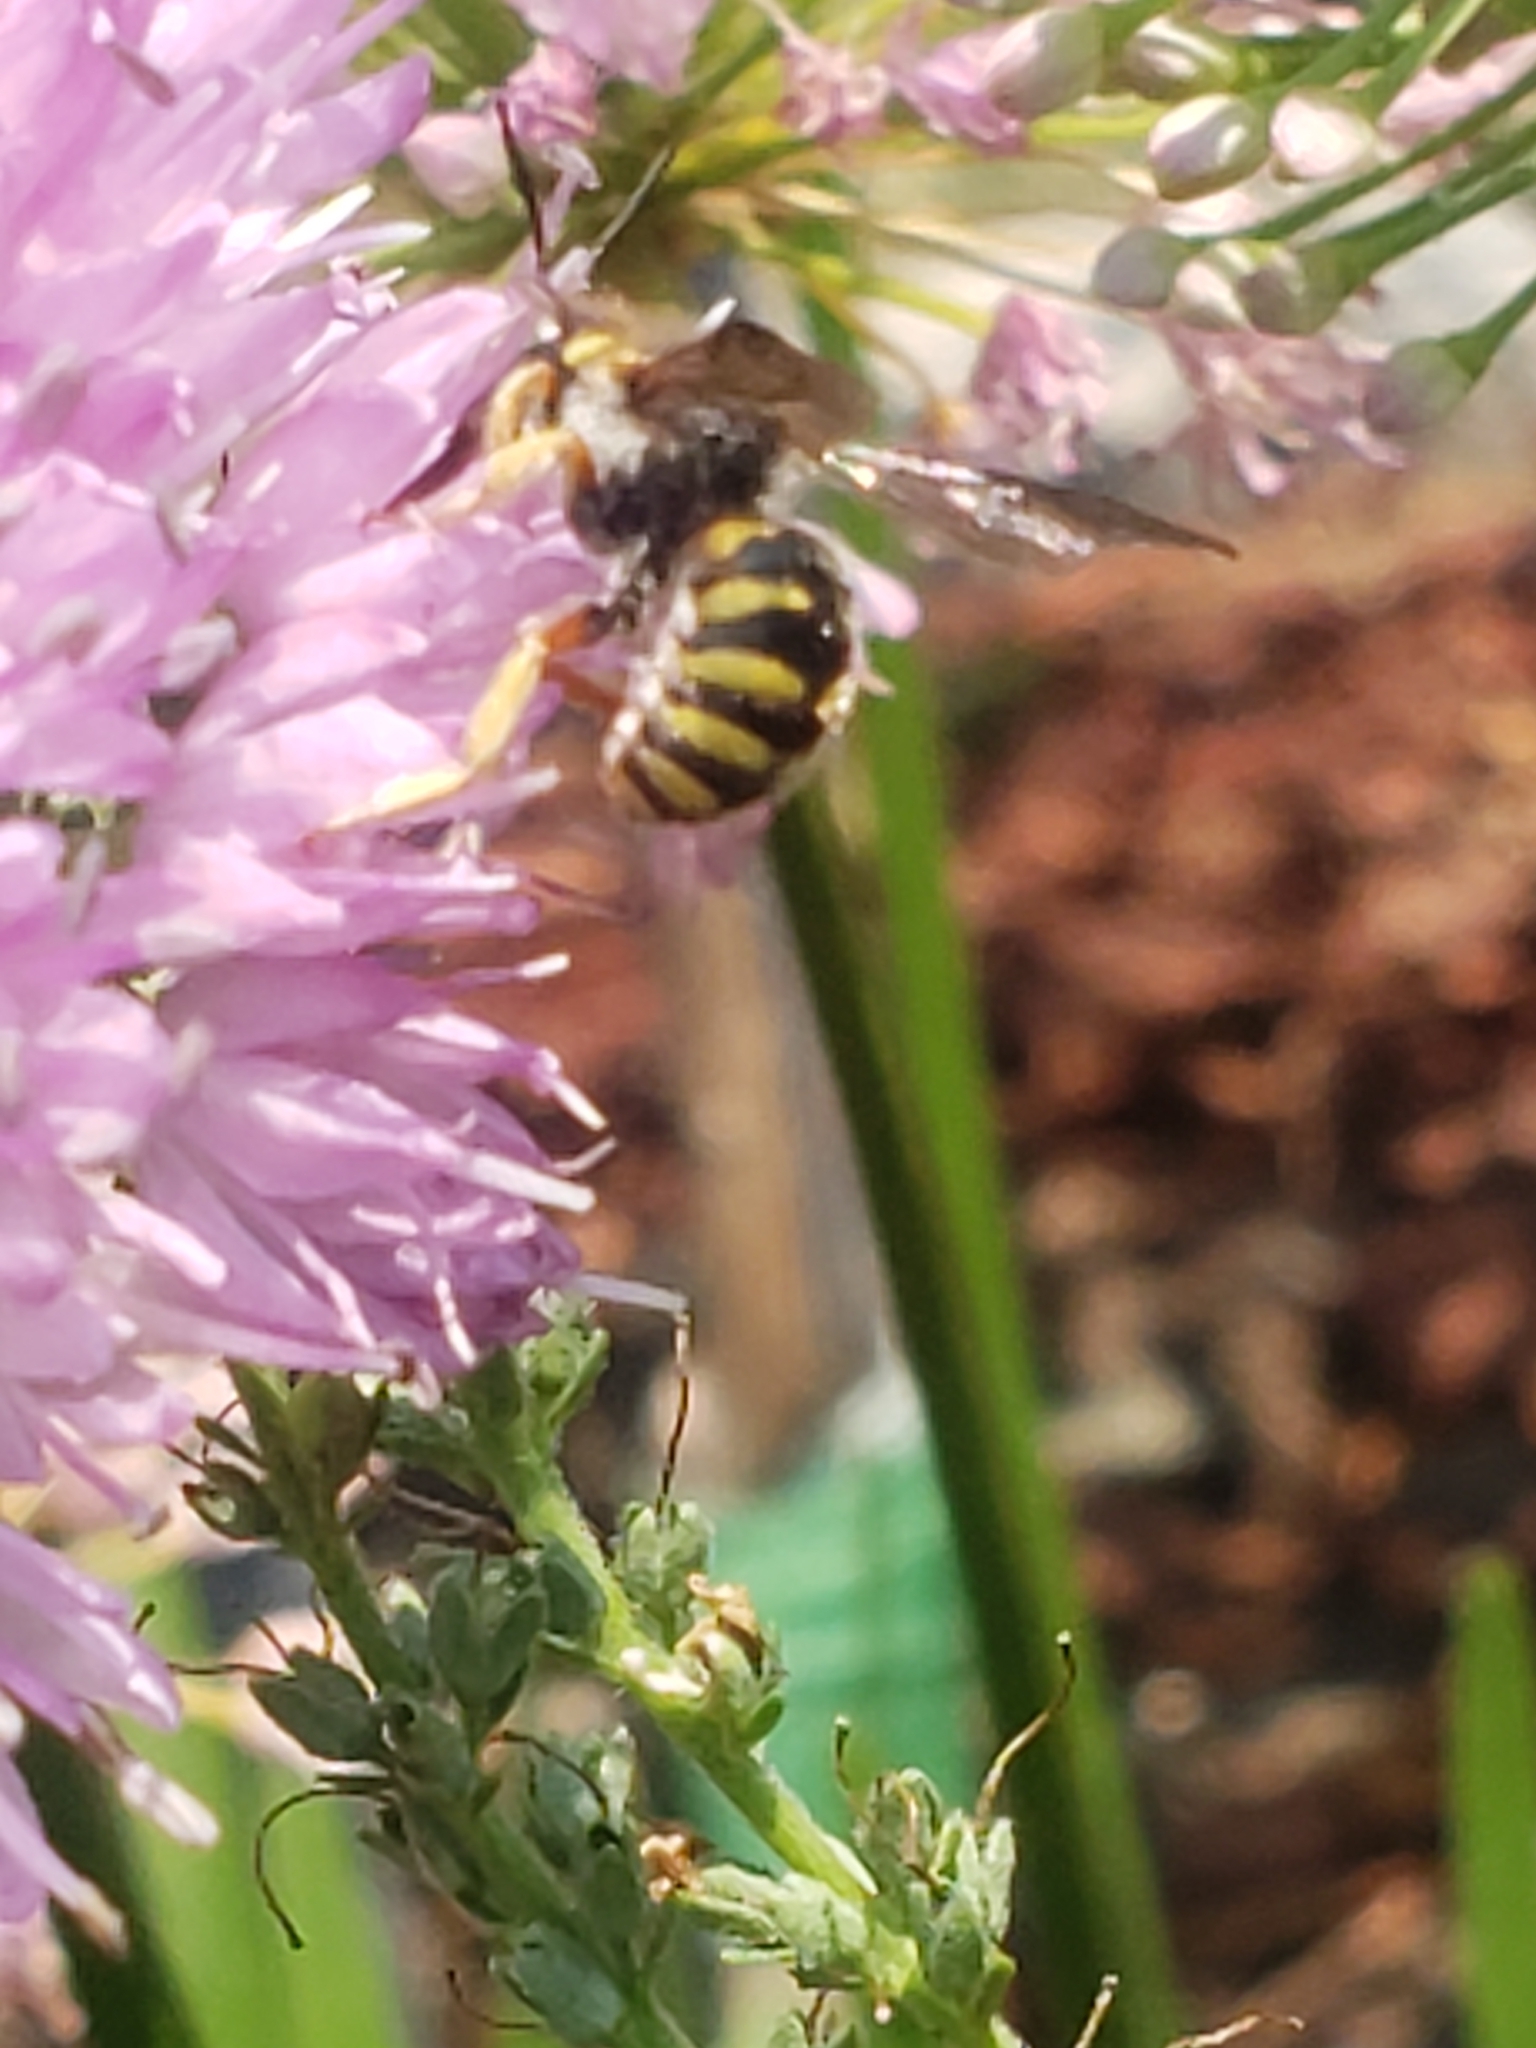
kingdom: Animalia
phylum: Arthropoda
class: Insecta
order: Hymenoptera
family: Megachilidae
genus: Anthidium
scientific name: Anthidium oblongatum
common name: Oblong wool carder bee
